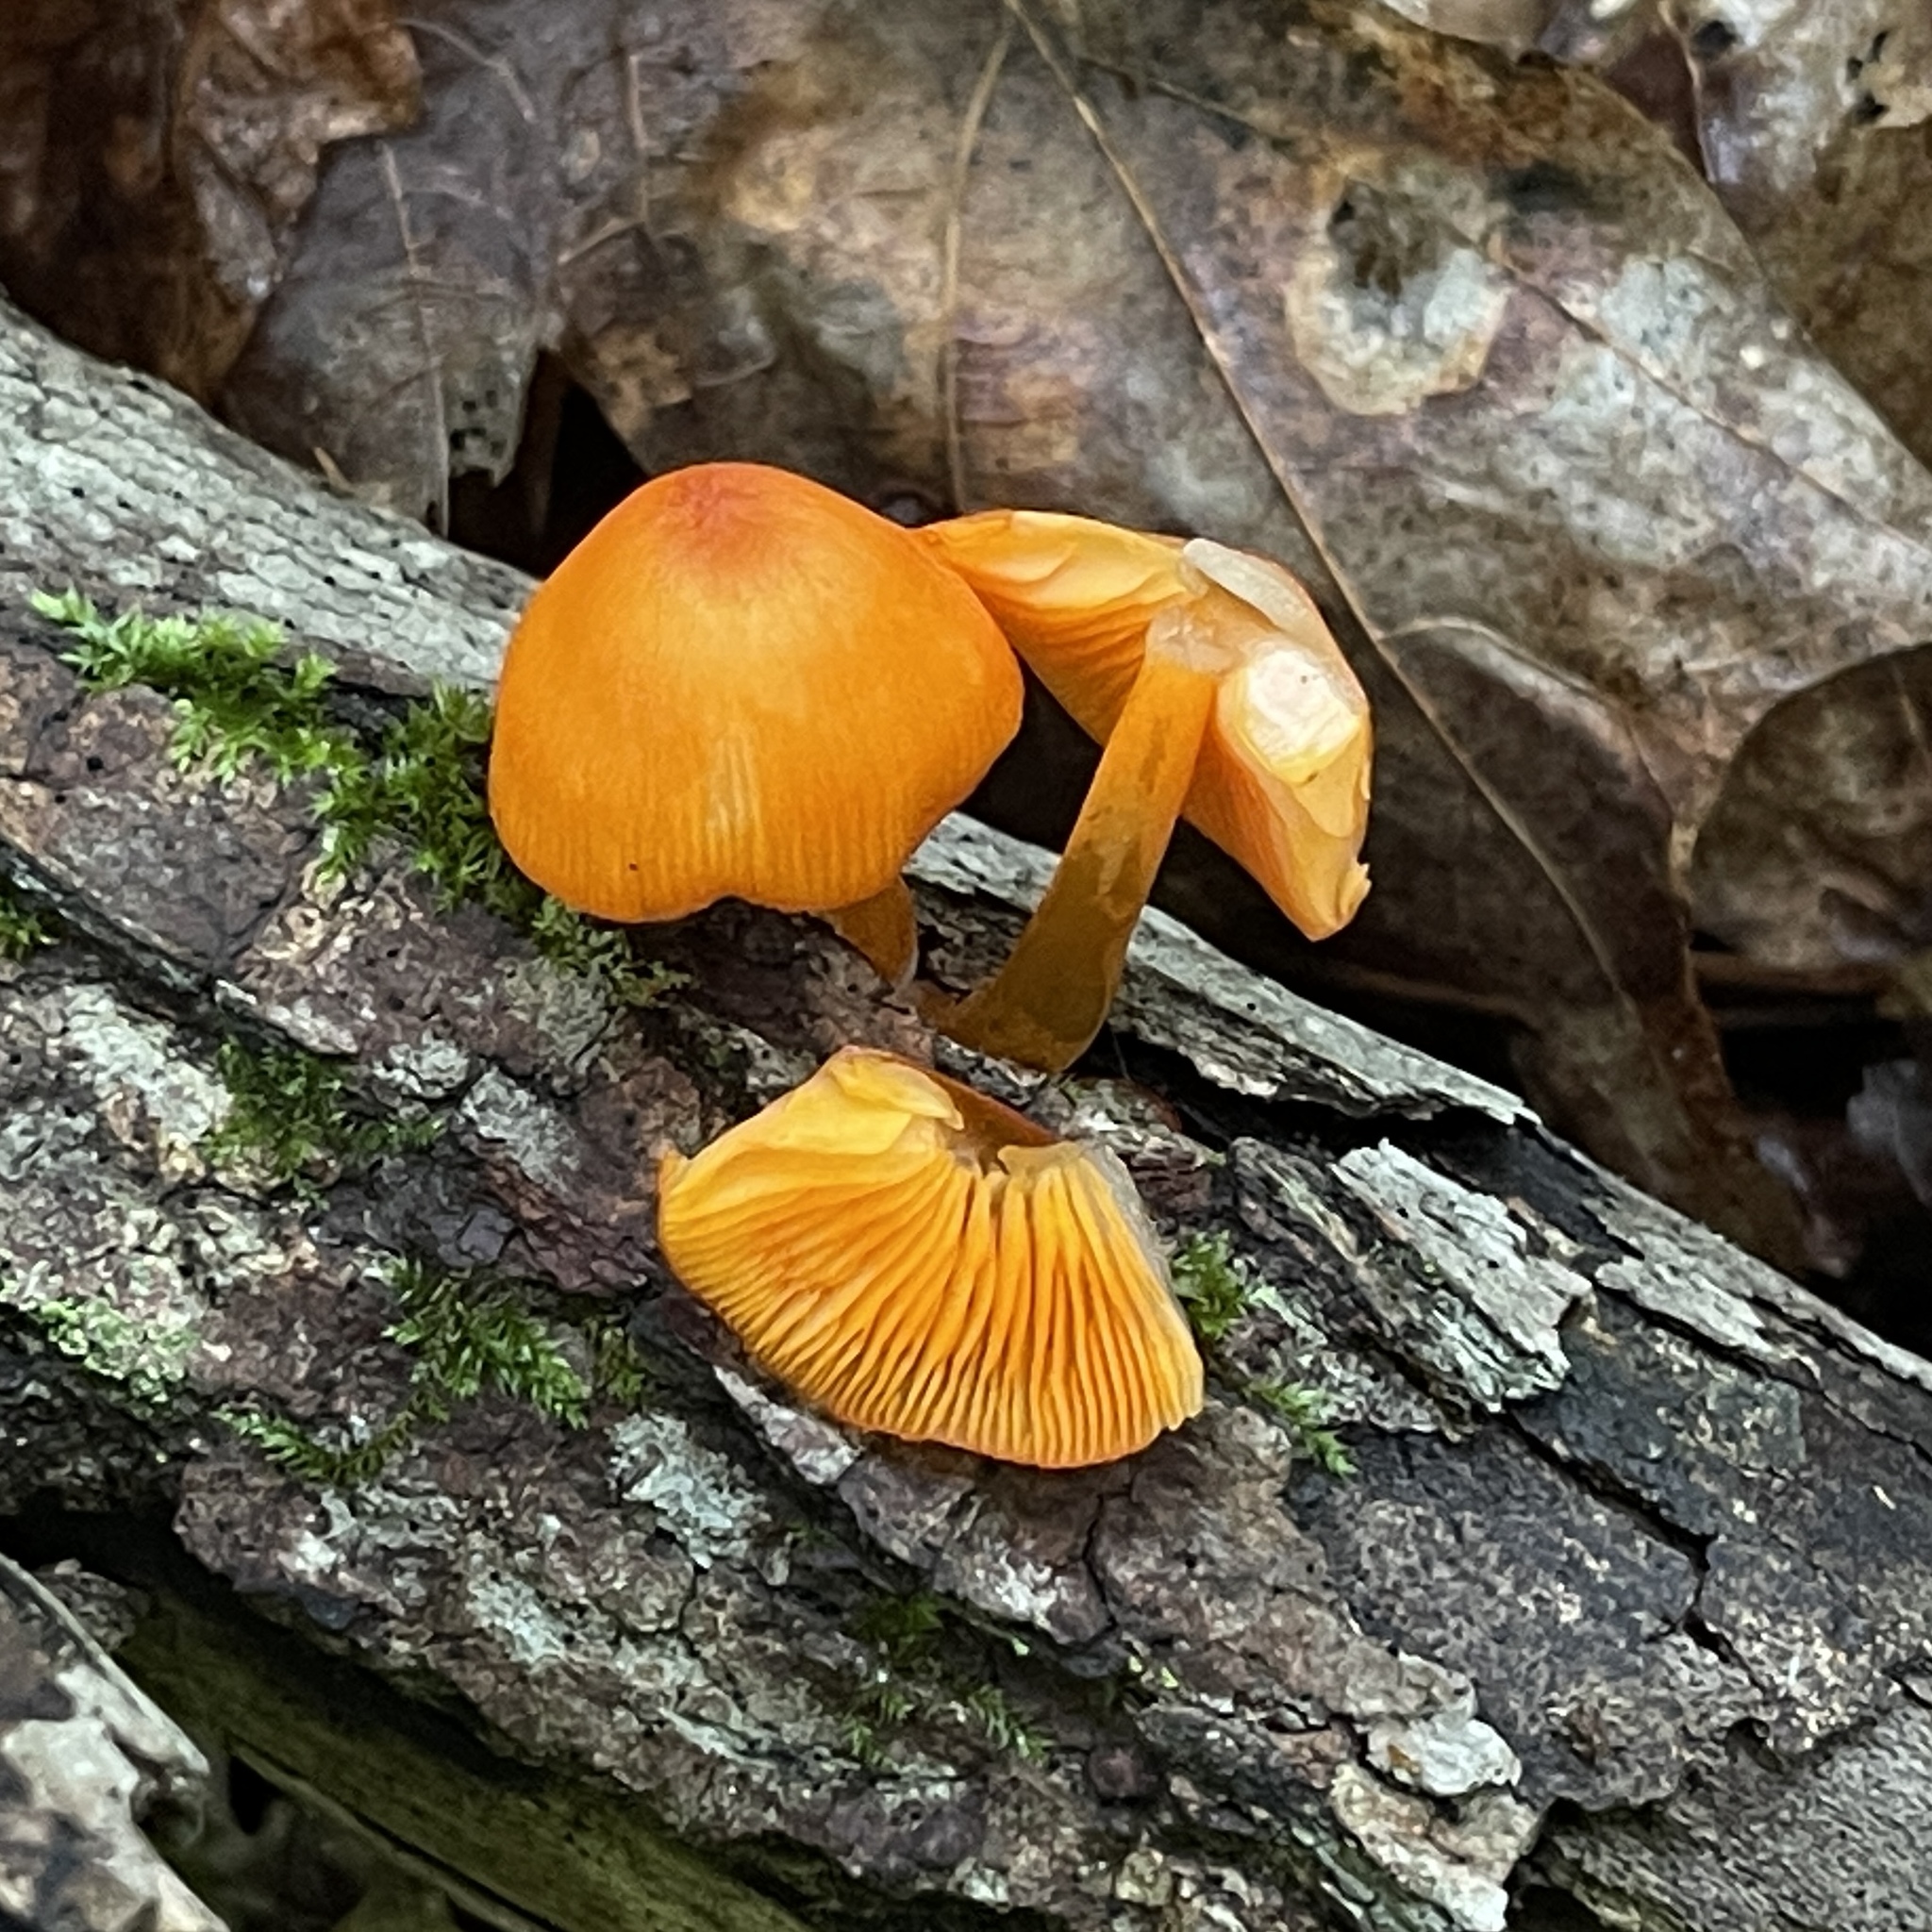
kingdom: Fungi
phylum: Basidiomycota
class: Agaricomycetes
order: Agaricales
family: Mycenaceae
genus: Mycena
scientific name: Mycena leaiana
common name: Orange mycena
